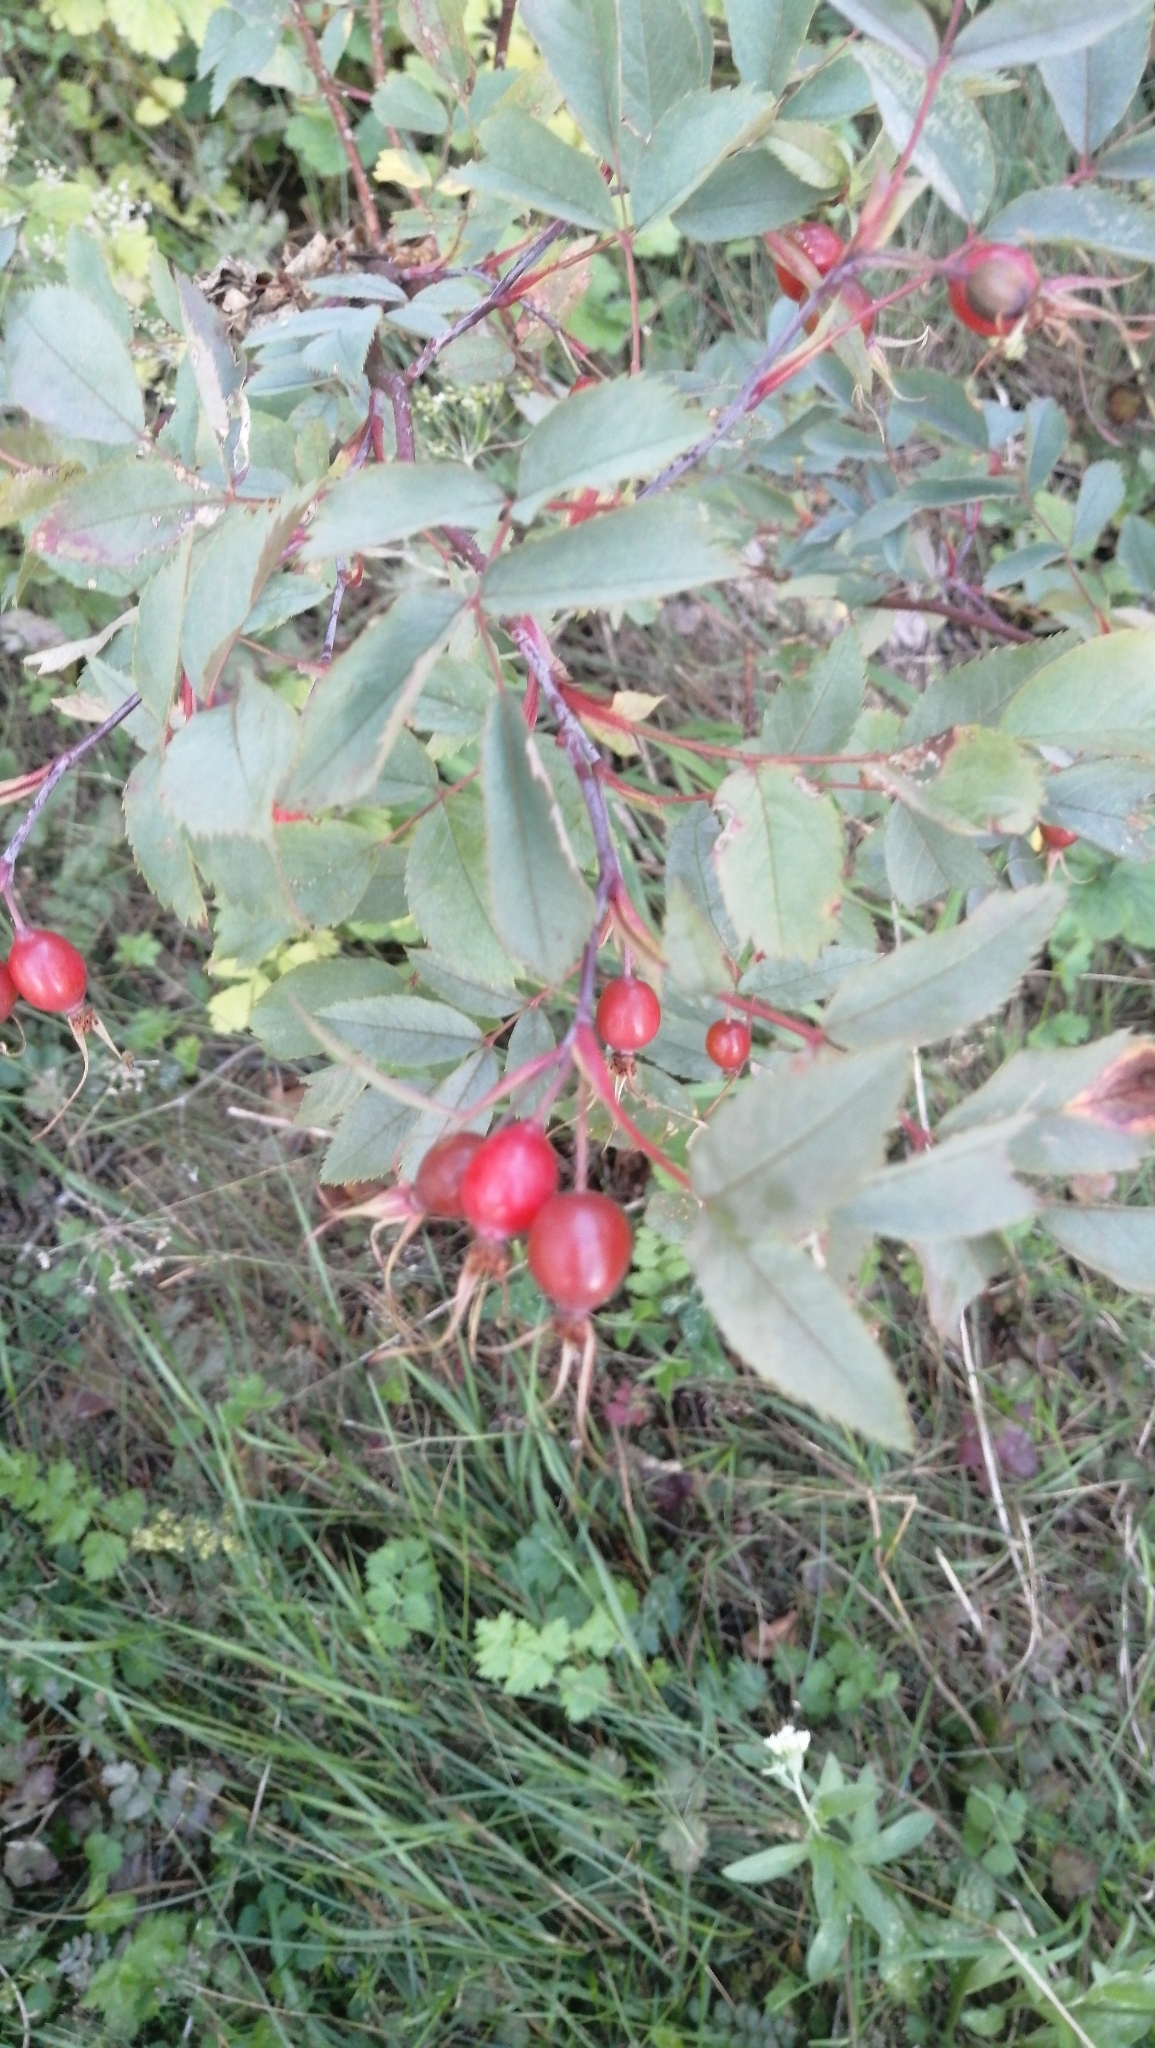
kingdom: Plantae
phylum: Tracheophyta
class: Magnoliopsida
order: Rosales
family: Rosaceae
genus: Rosa
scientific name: Rosa glauca
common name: Redleaf rose
